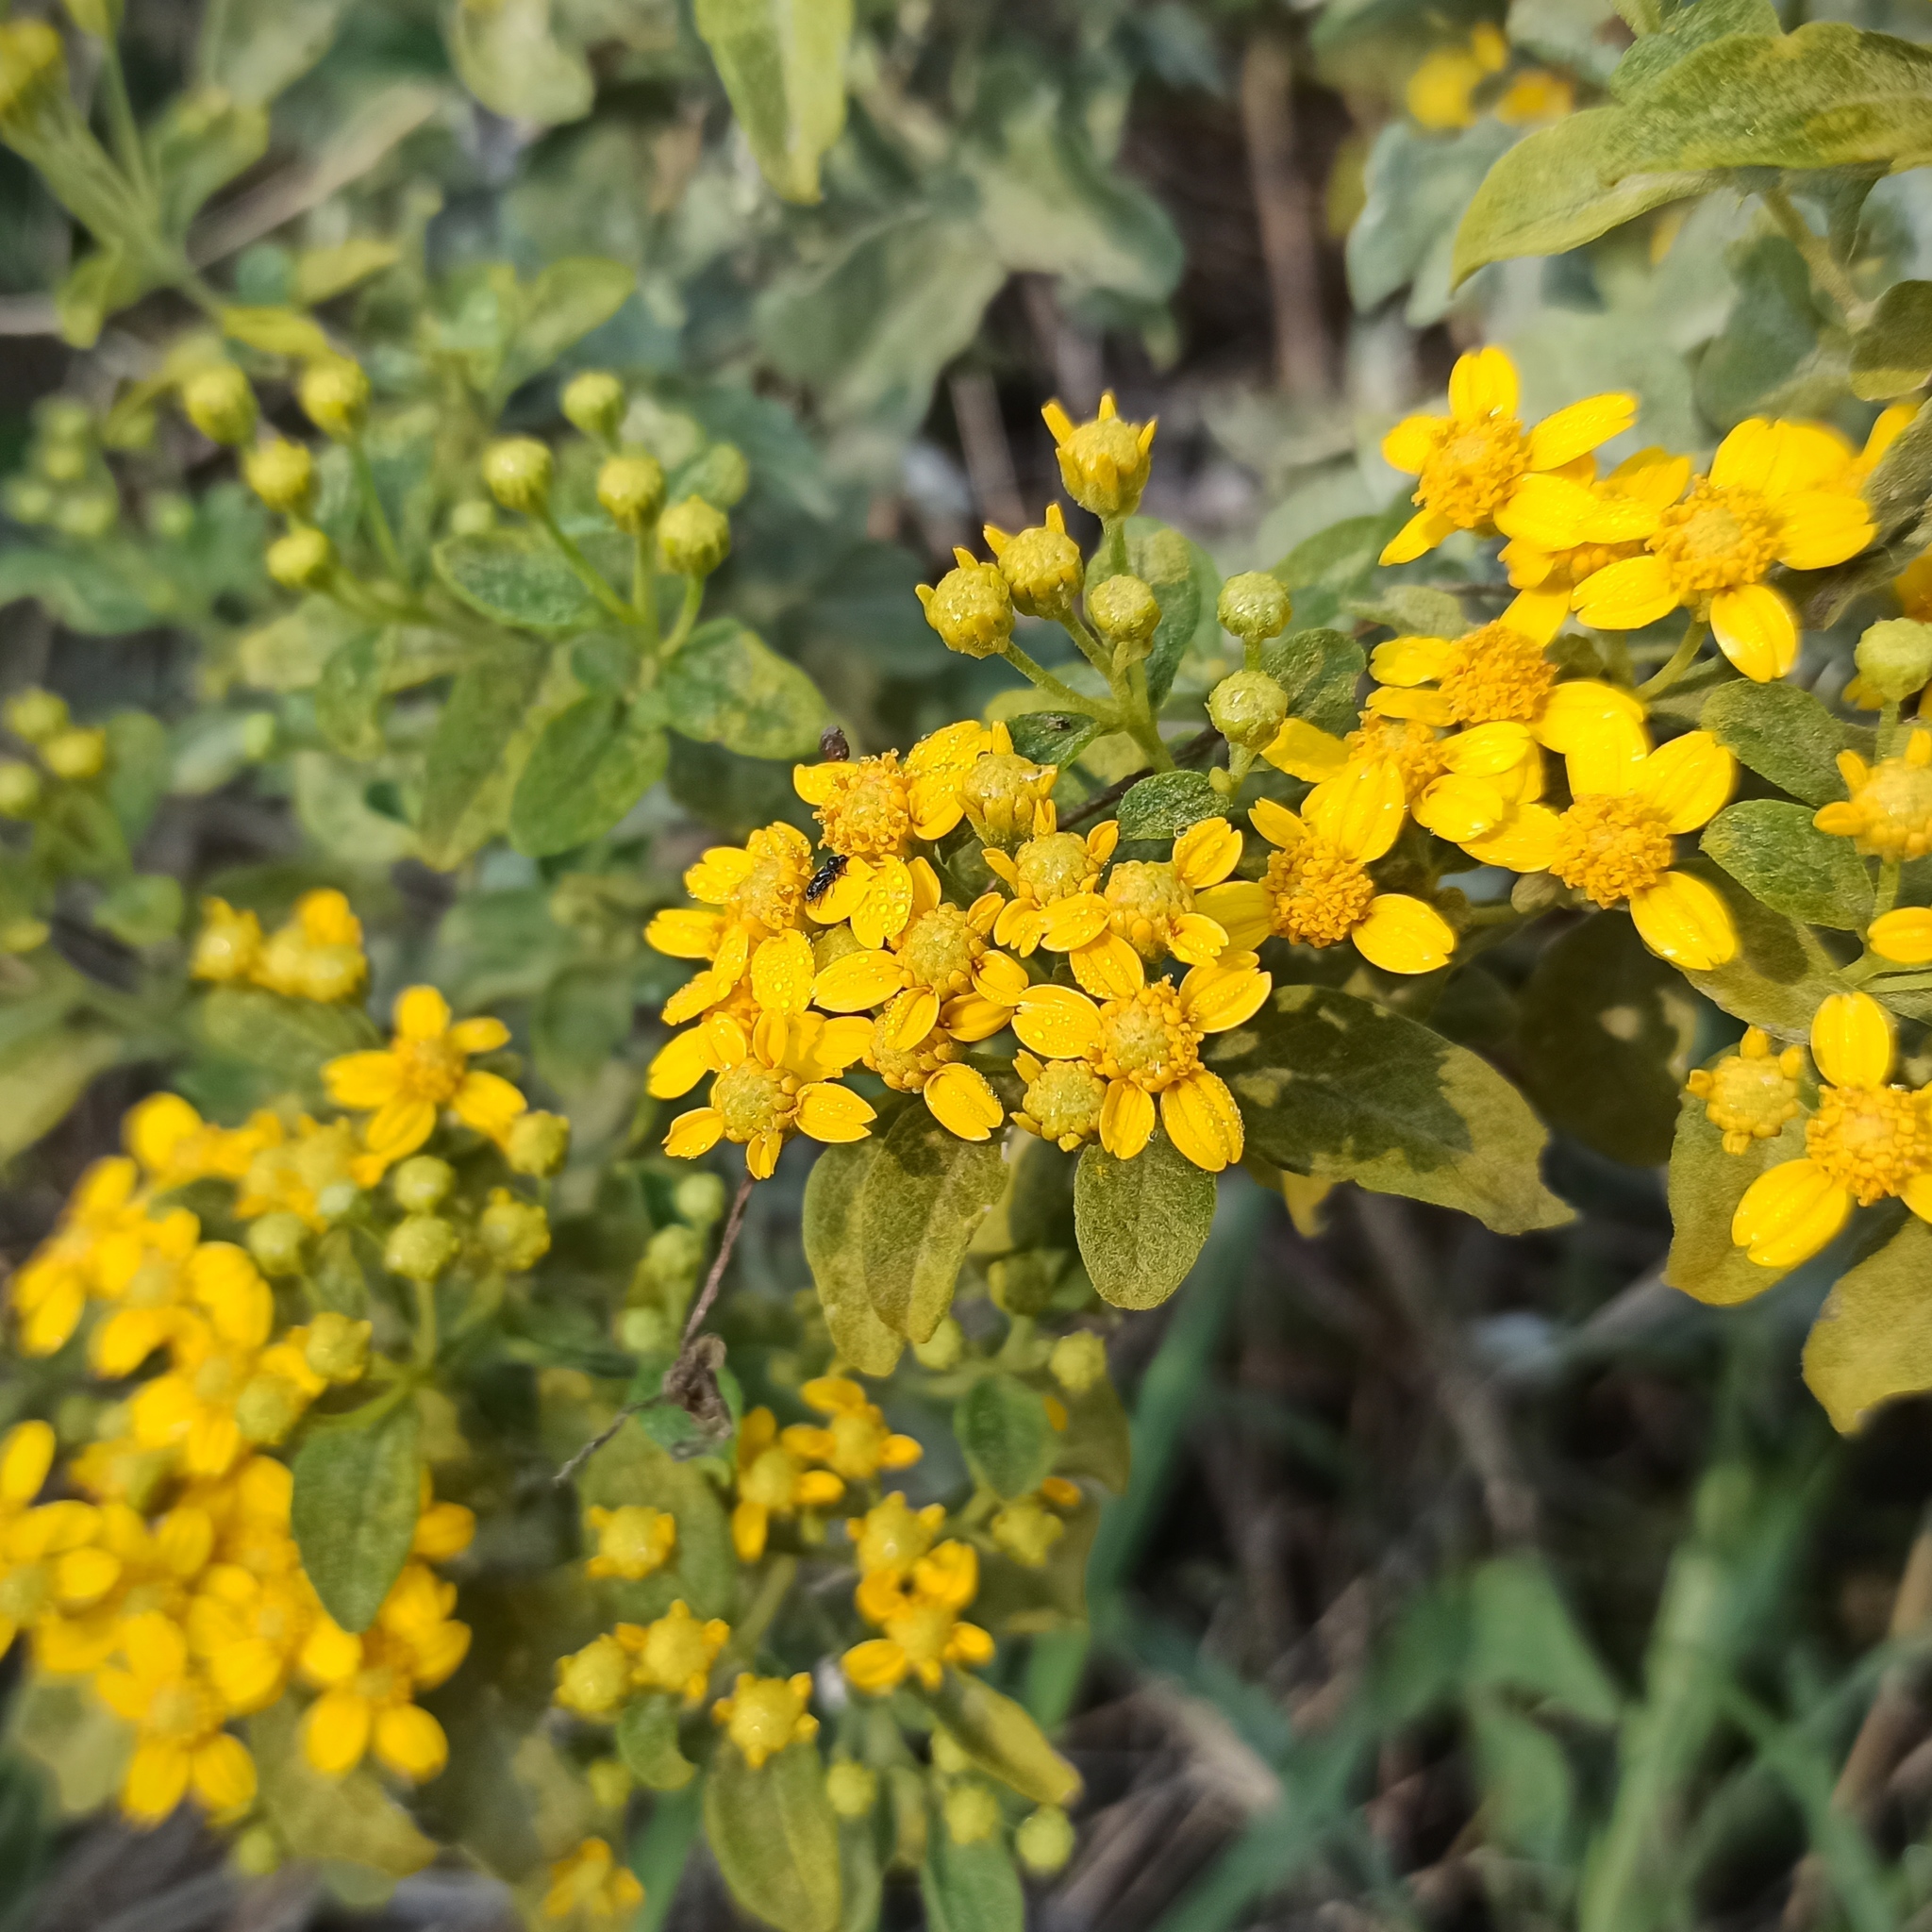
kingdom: Plantae
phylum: Tracheophyta
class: Magnoliopsida
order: Asterales
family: Asteraceae
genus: Zaluzania
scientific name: Zaluzania augusta
